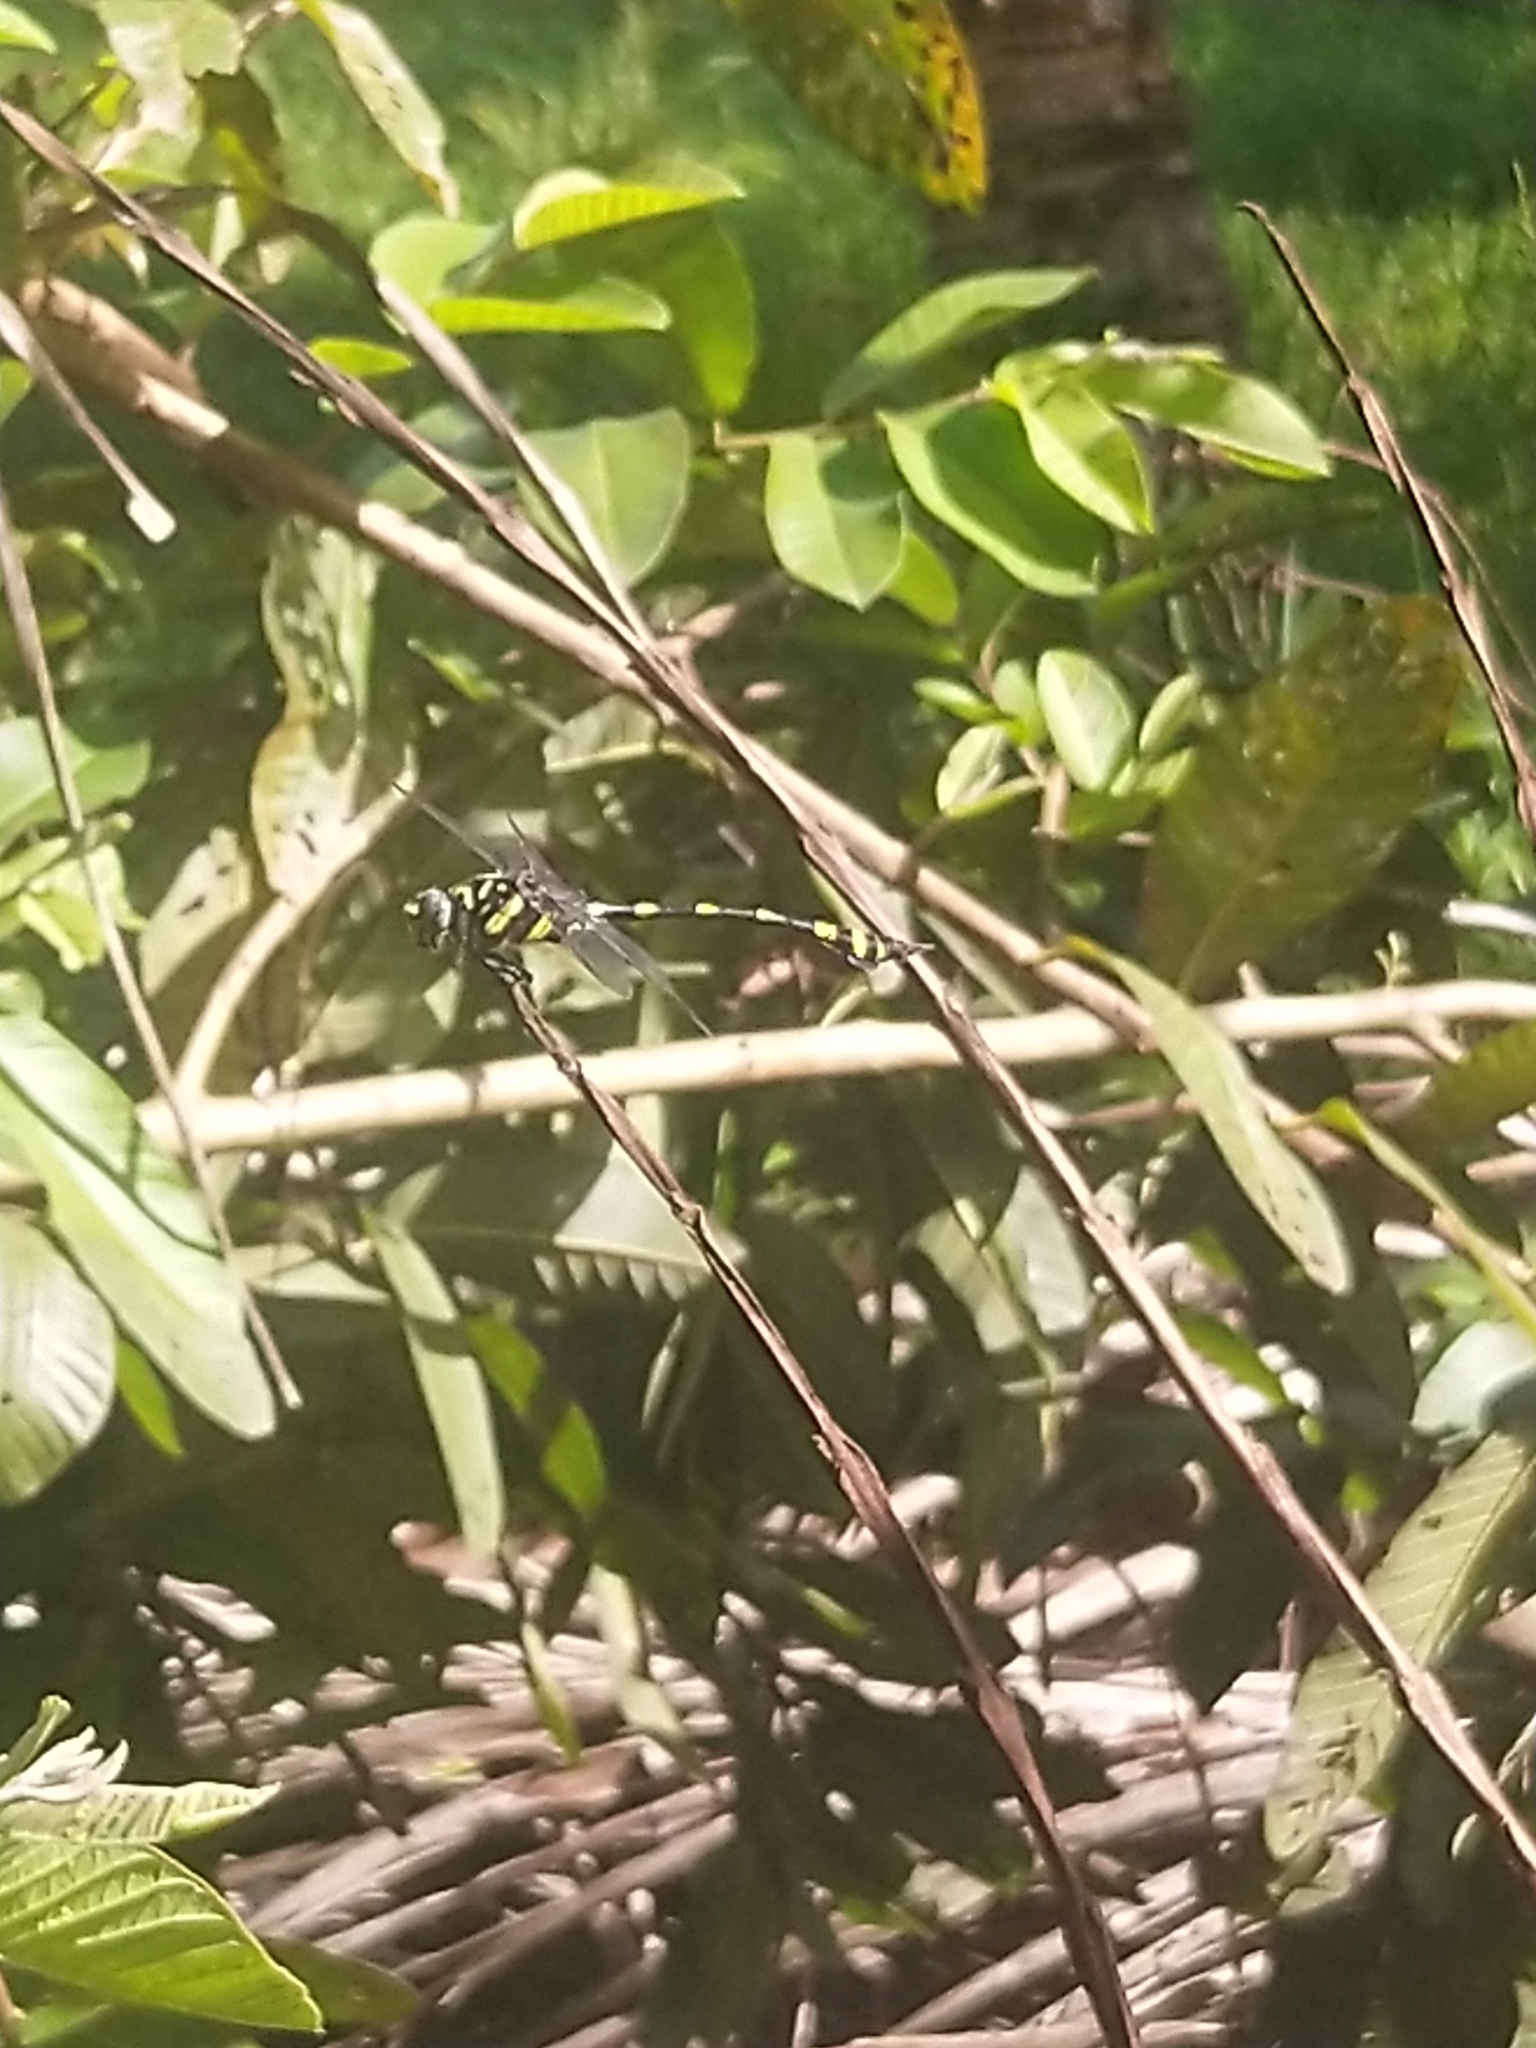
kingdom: Animalia
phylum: Arthropoda
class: Insecta
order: Odonata
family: Gomphidae
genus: Ictinogomphus
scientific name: Ictinogomphus rapax
